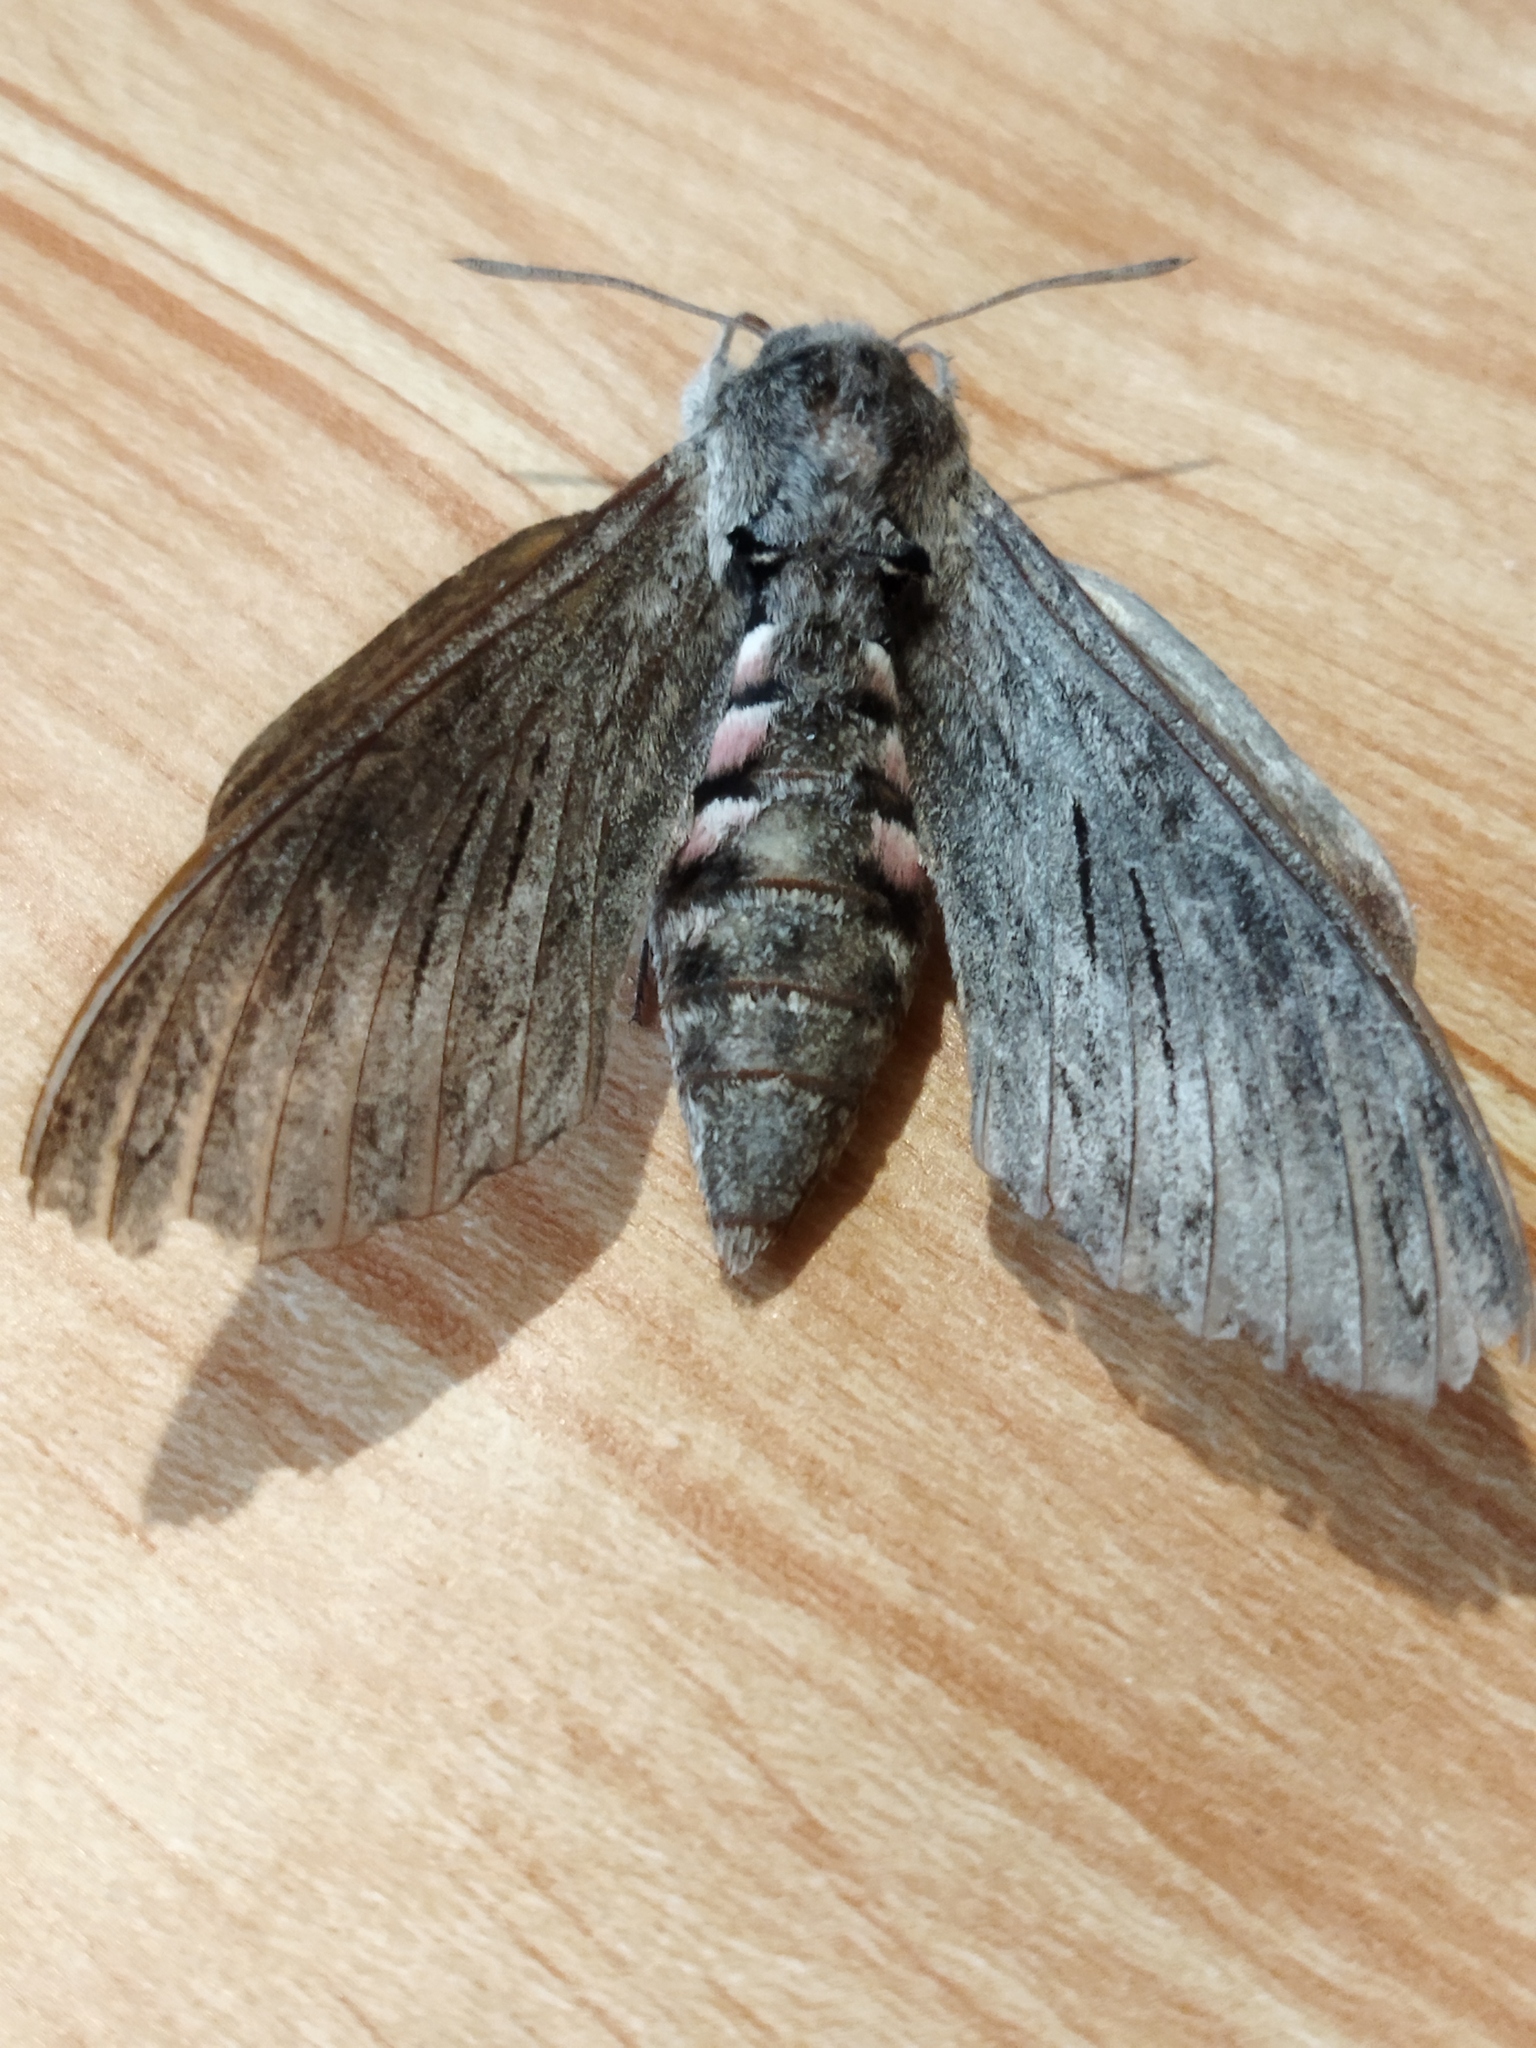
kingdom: Animalia
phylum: Arthropoda
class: Insecta
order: Lepidoptera
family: Sphingidae
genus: Agrius
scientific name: Agrius convolvuli
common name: Convolvulus hawkmoth
